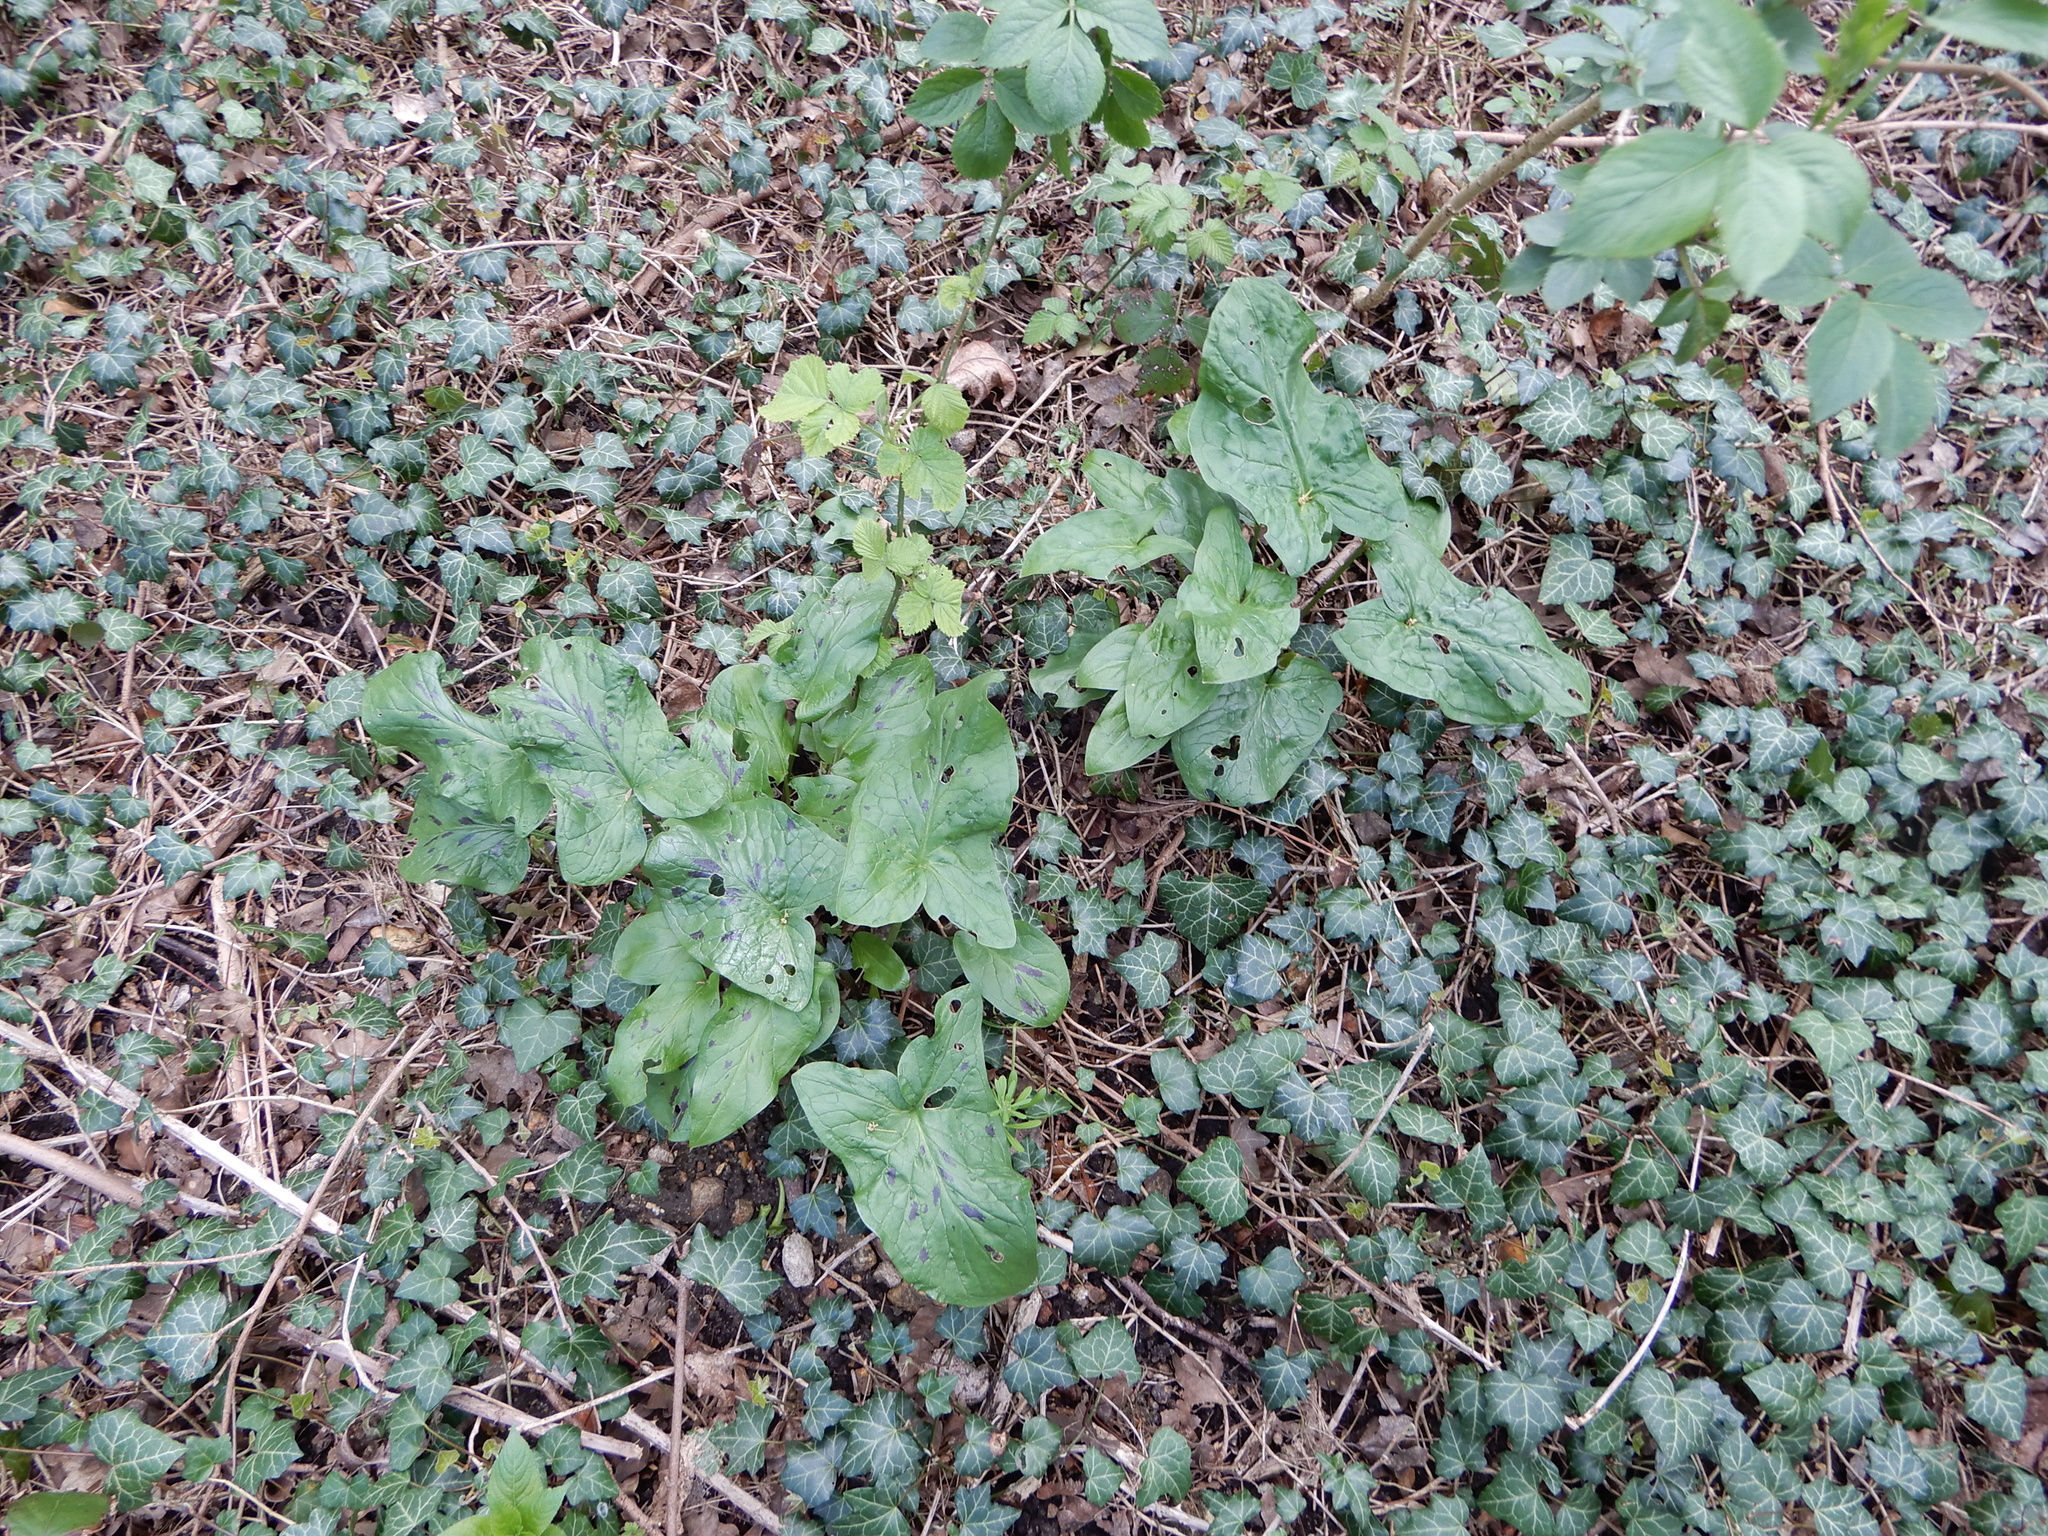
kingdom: Plantae
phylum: Tracheophyta
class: Liliopsida
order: Alismatales
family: Araceae
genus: Arum
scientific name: Arum maculatum
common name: Lords-and-ladies
